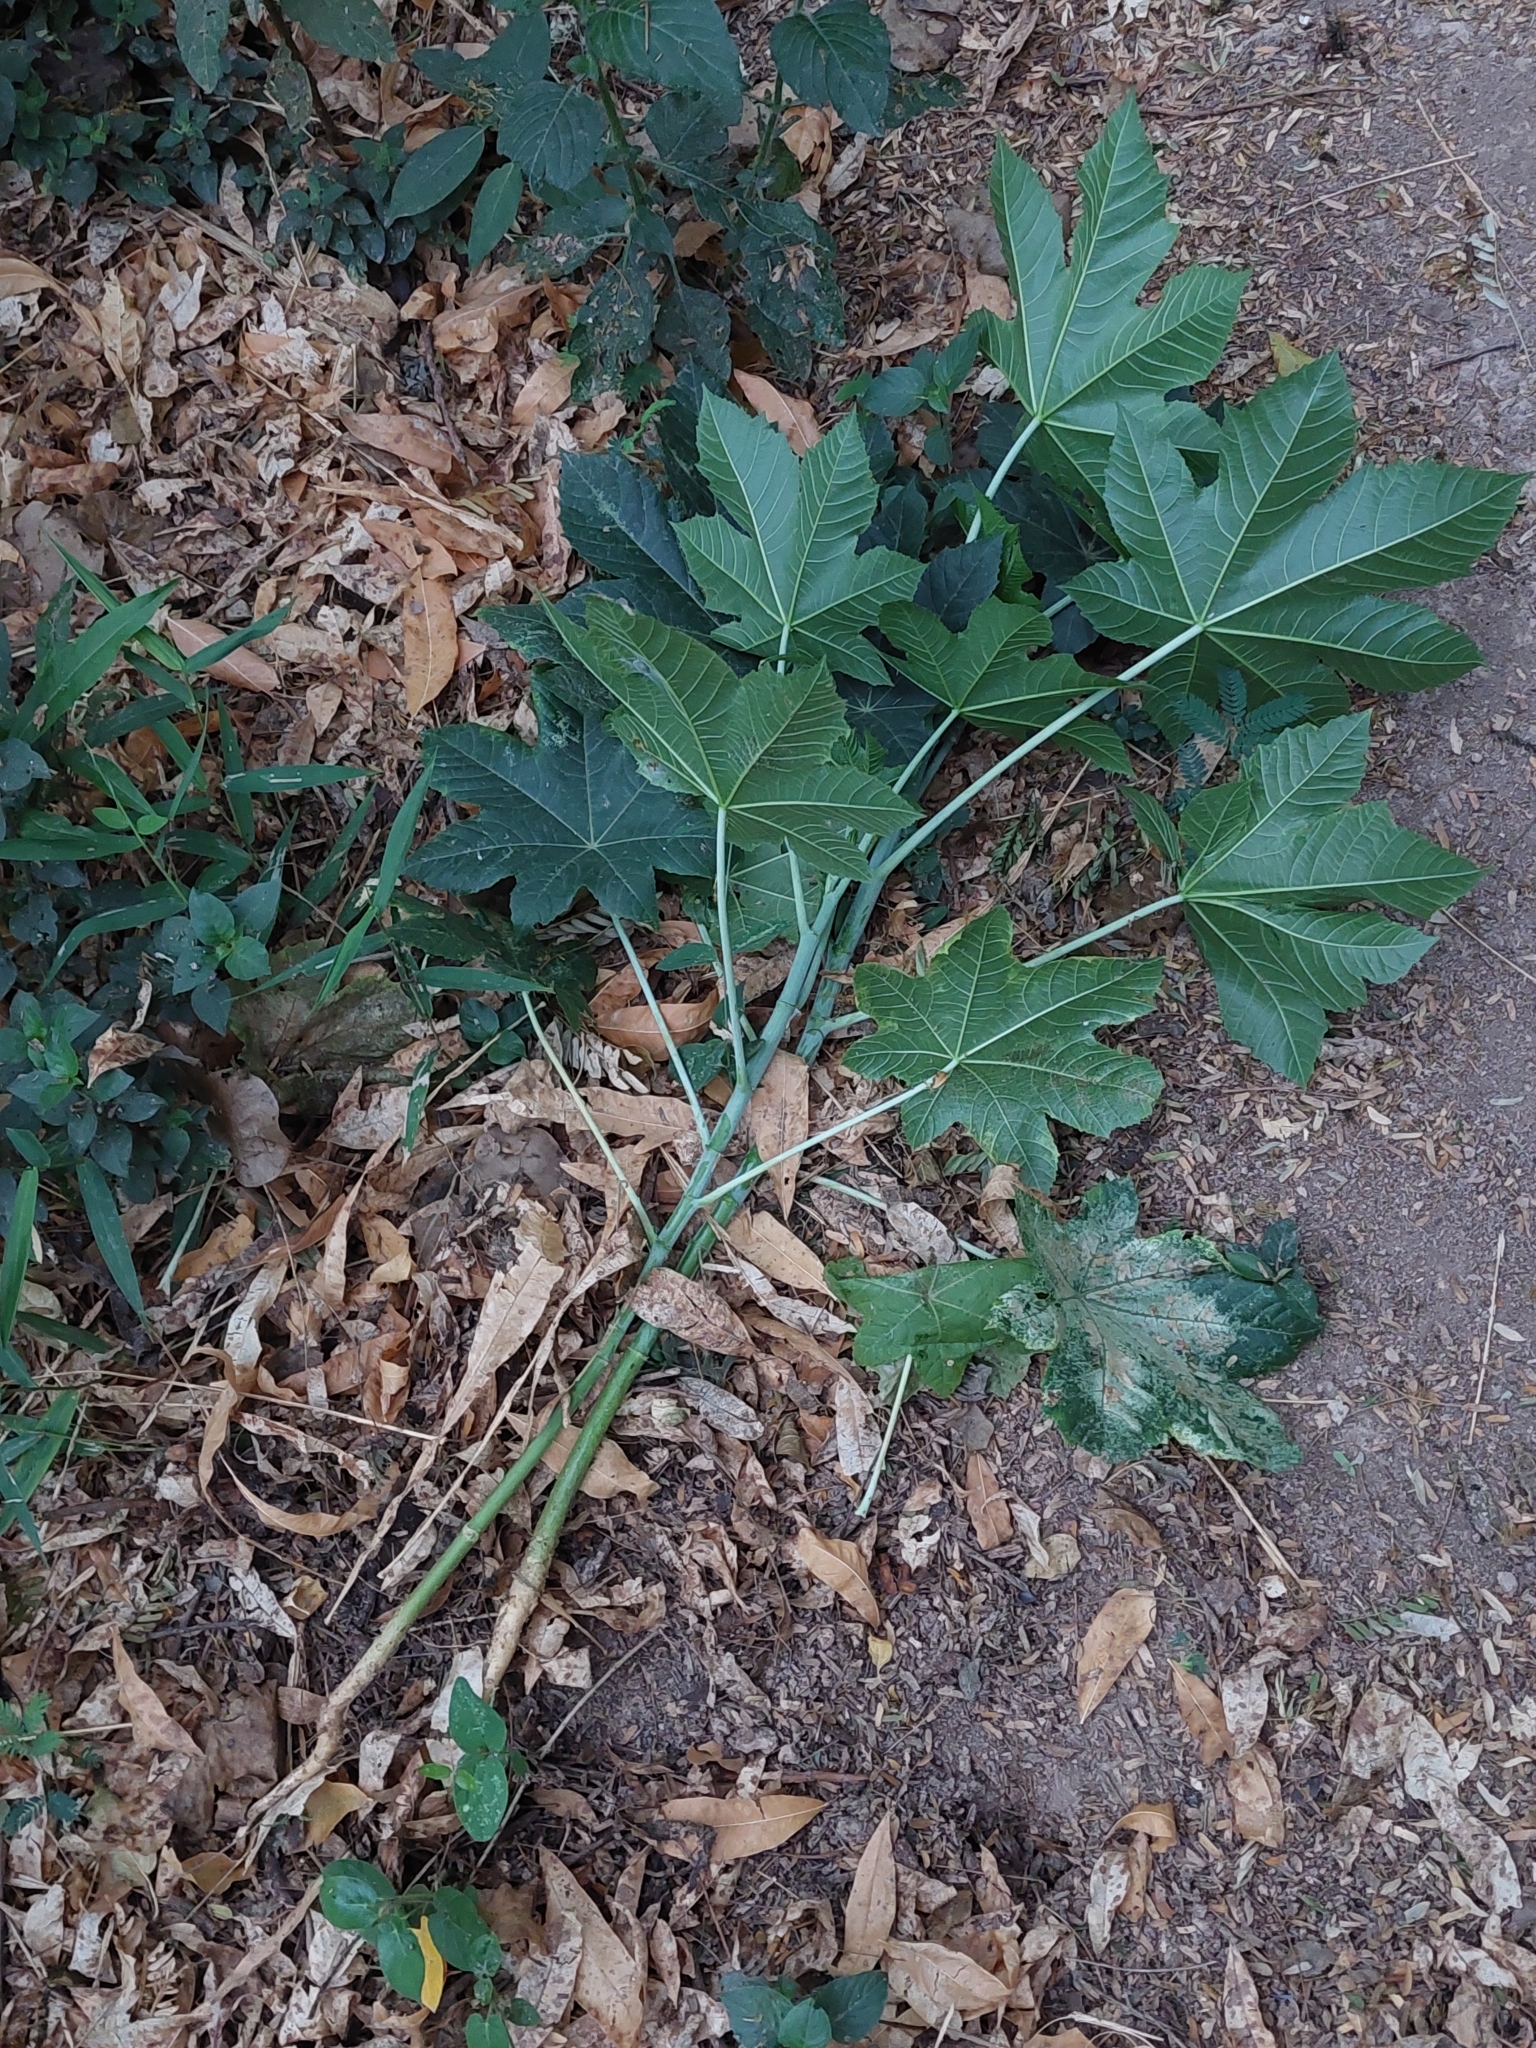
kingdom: Plantae
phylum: Tracheophyta
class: Magnoliopsida
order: Malpighiales
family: Euphorbiaceae
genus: Ricinus
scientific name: Ricinus communis
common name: Castor-oil-plant
